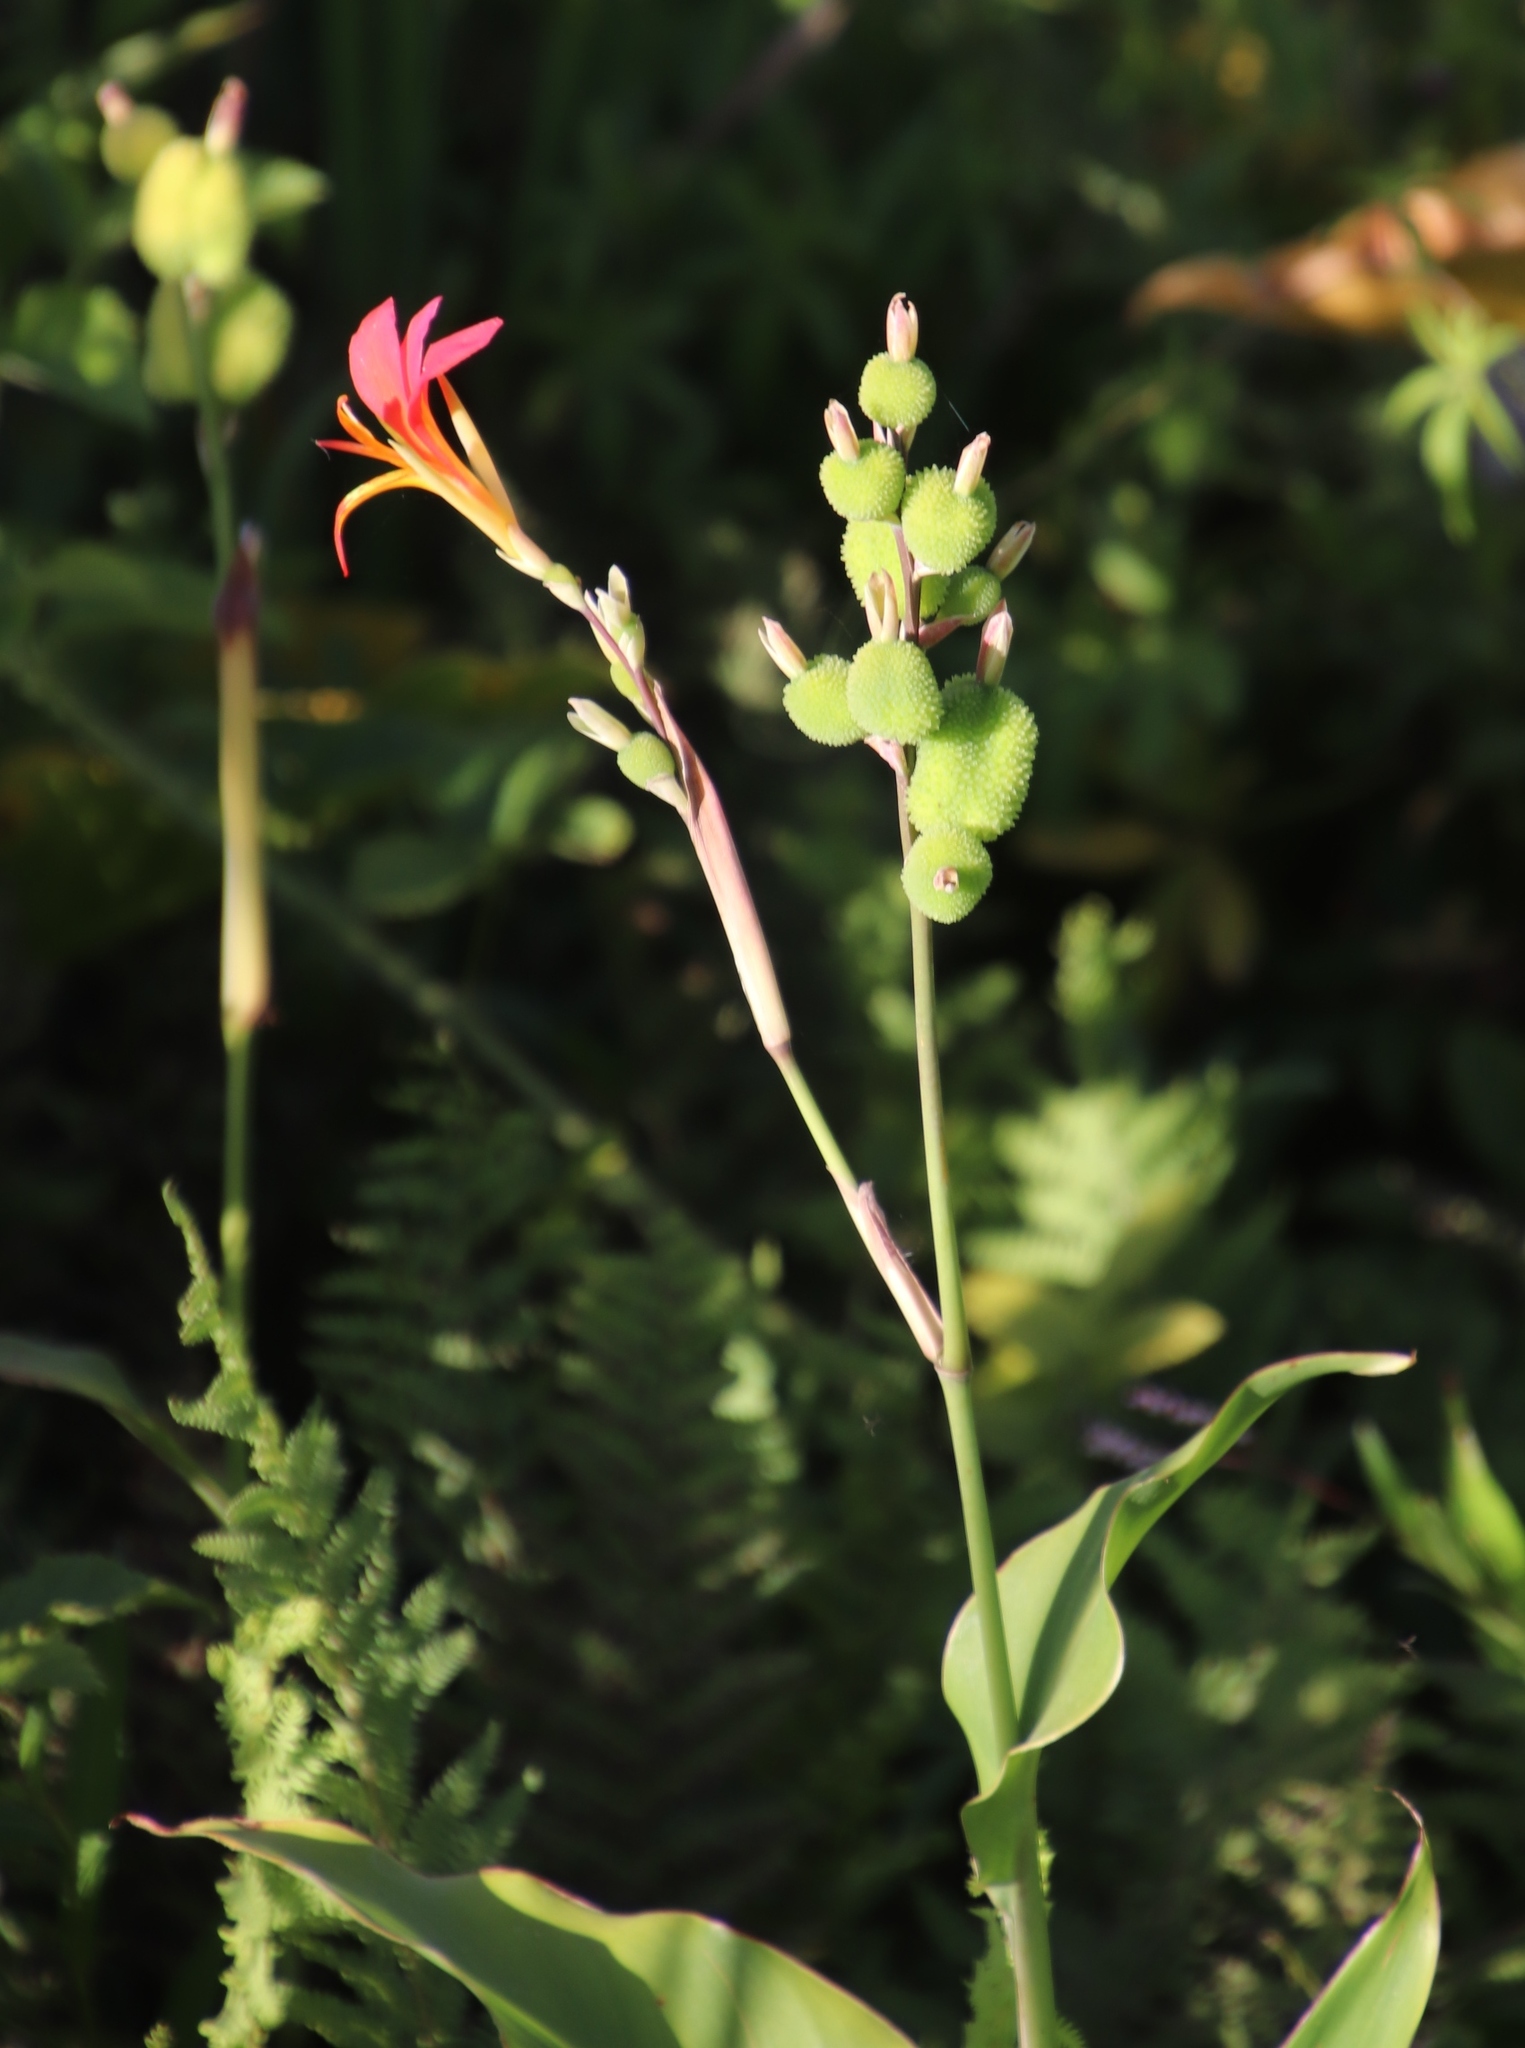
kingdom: Plantae
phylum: Tracheophyta
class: Liliopsida
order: Zingiberales
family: Cannaceae
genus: Canna
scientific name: Canna indica
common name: Indian shot
